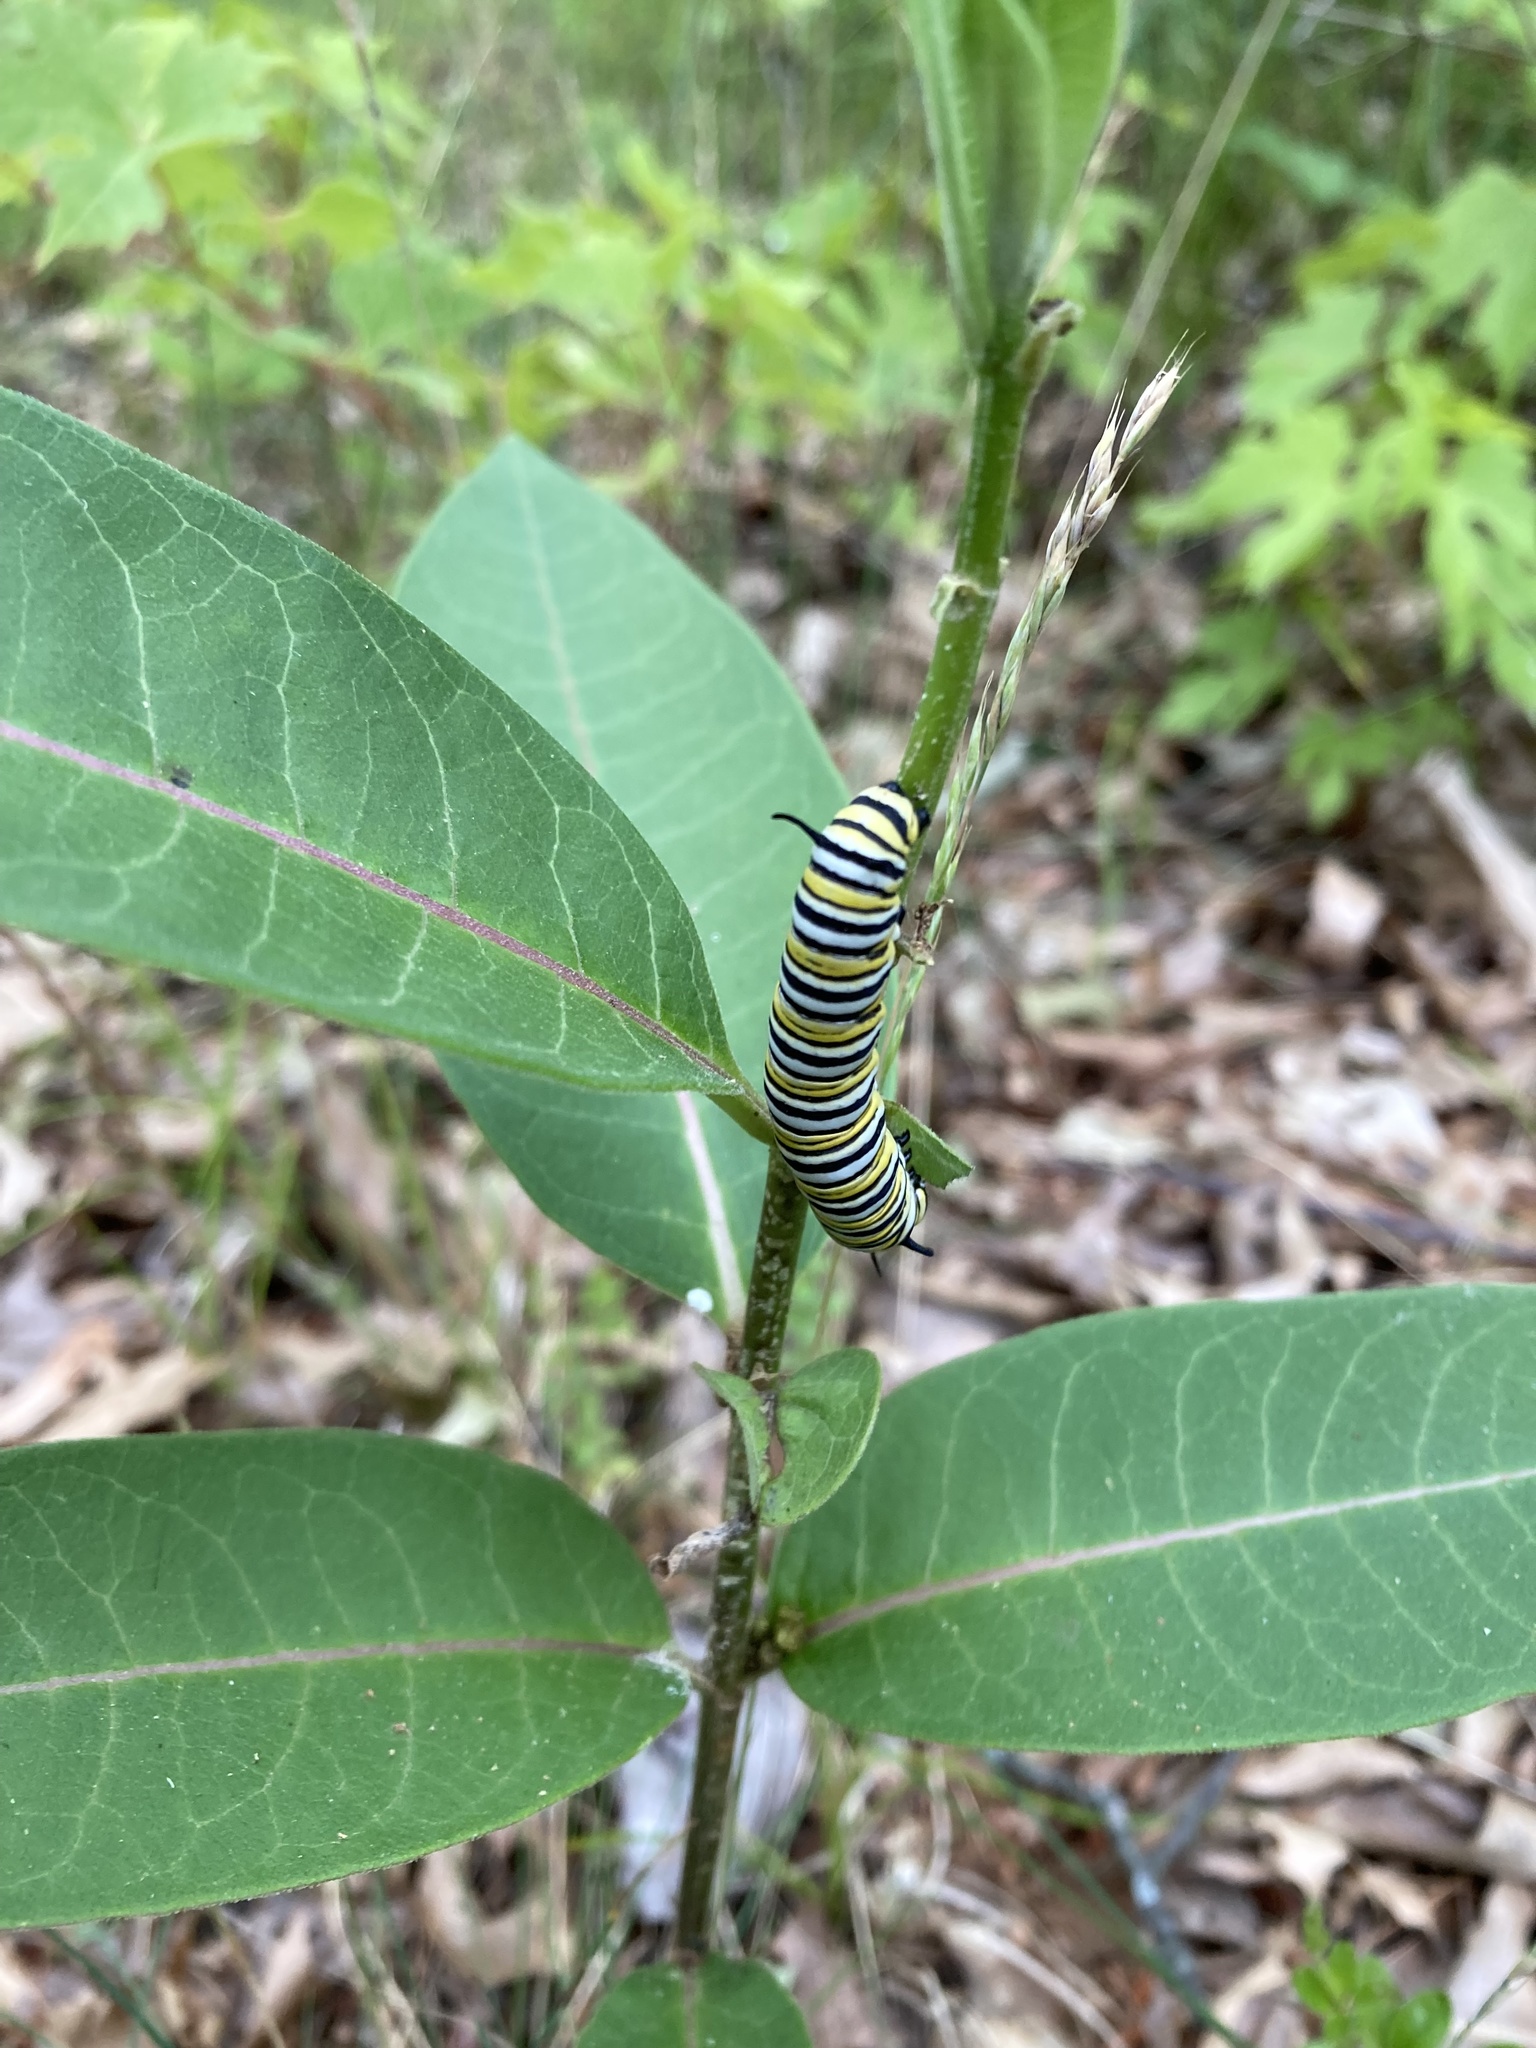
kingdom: Animalia
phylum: Arthropoda
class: Insecta
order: Lepidoptera
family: Nymphalidae
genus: Danaus
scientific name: Danaus plexippus
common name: Monarch
